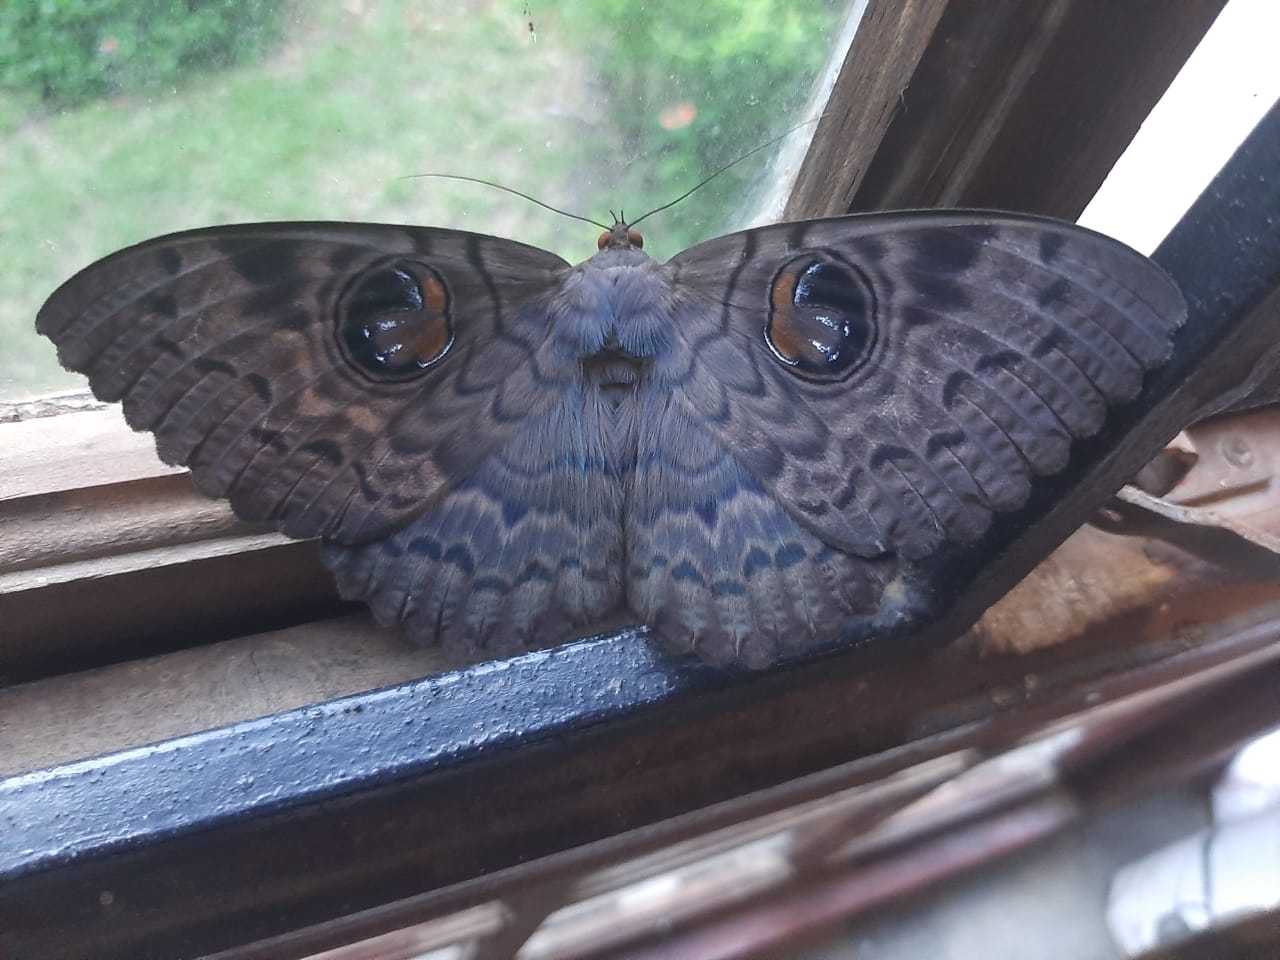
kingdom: Animalia
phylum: Arthropoda
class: Insecta
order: Lepidoptera
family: Erebidae
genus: Erebus
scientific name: Erebus walkeri
